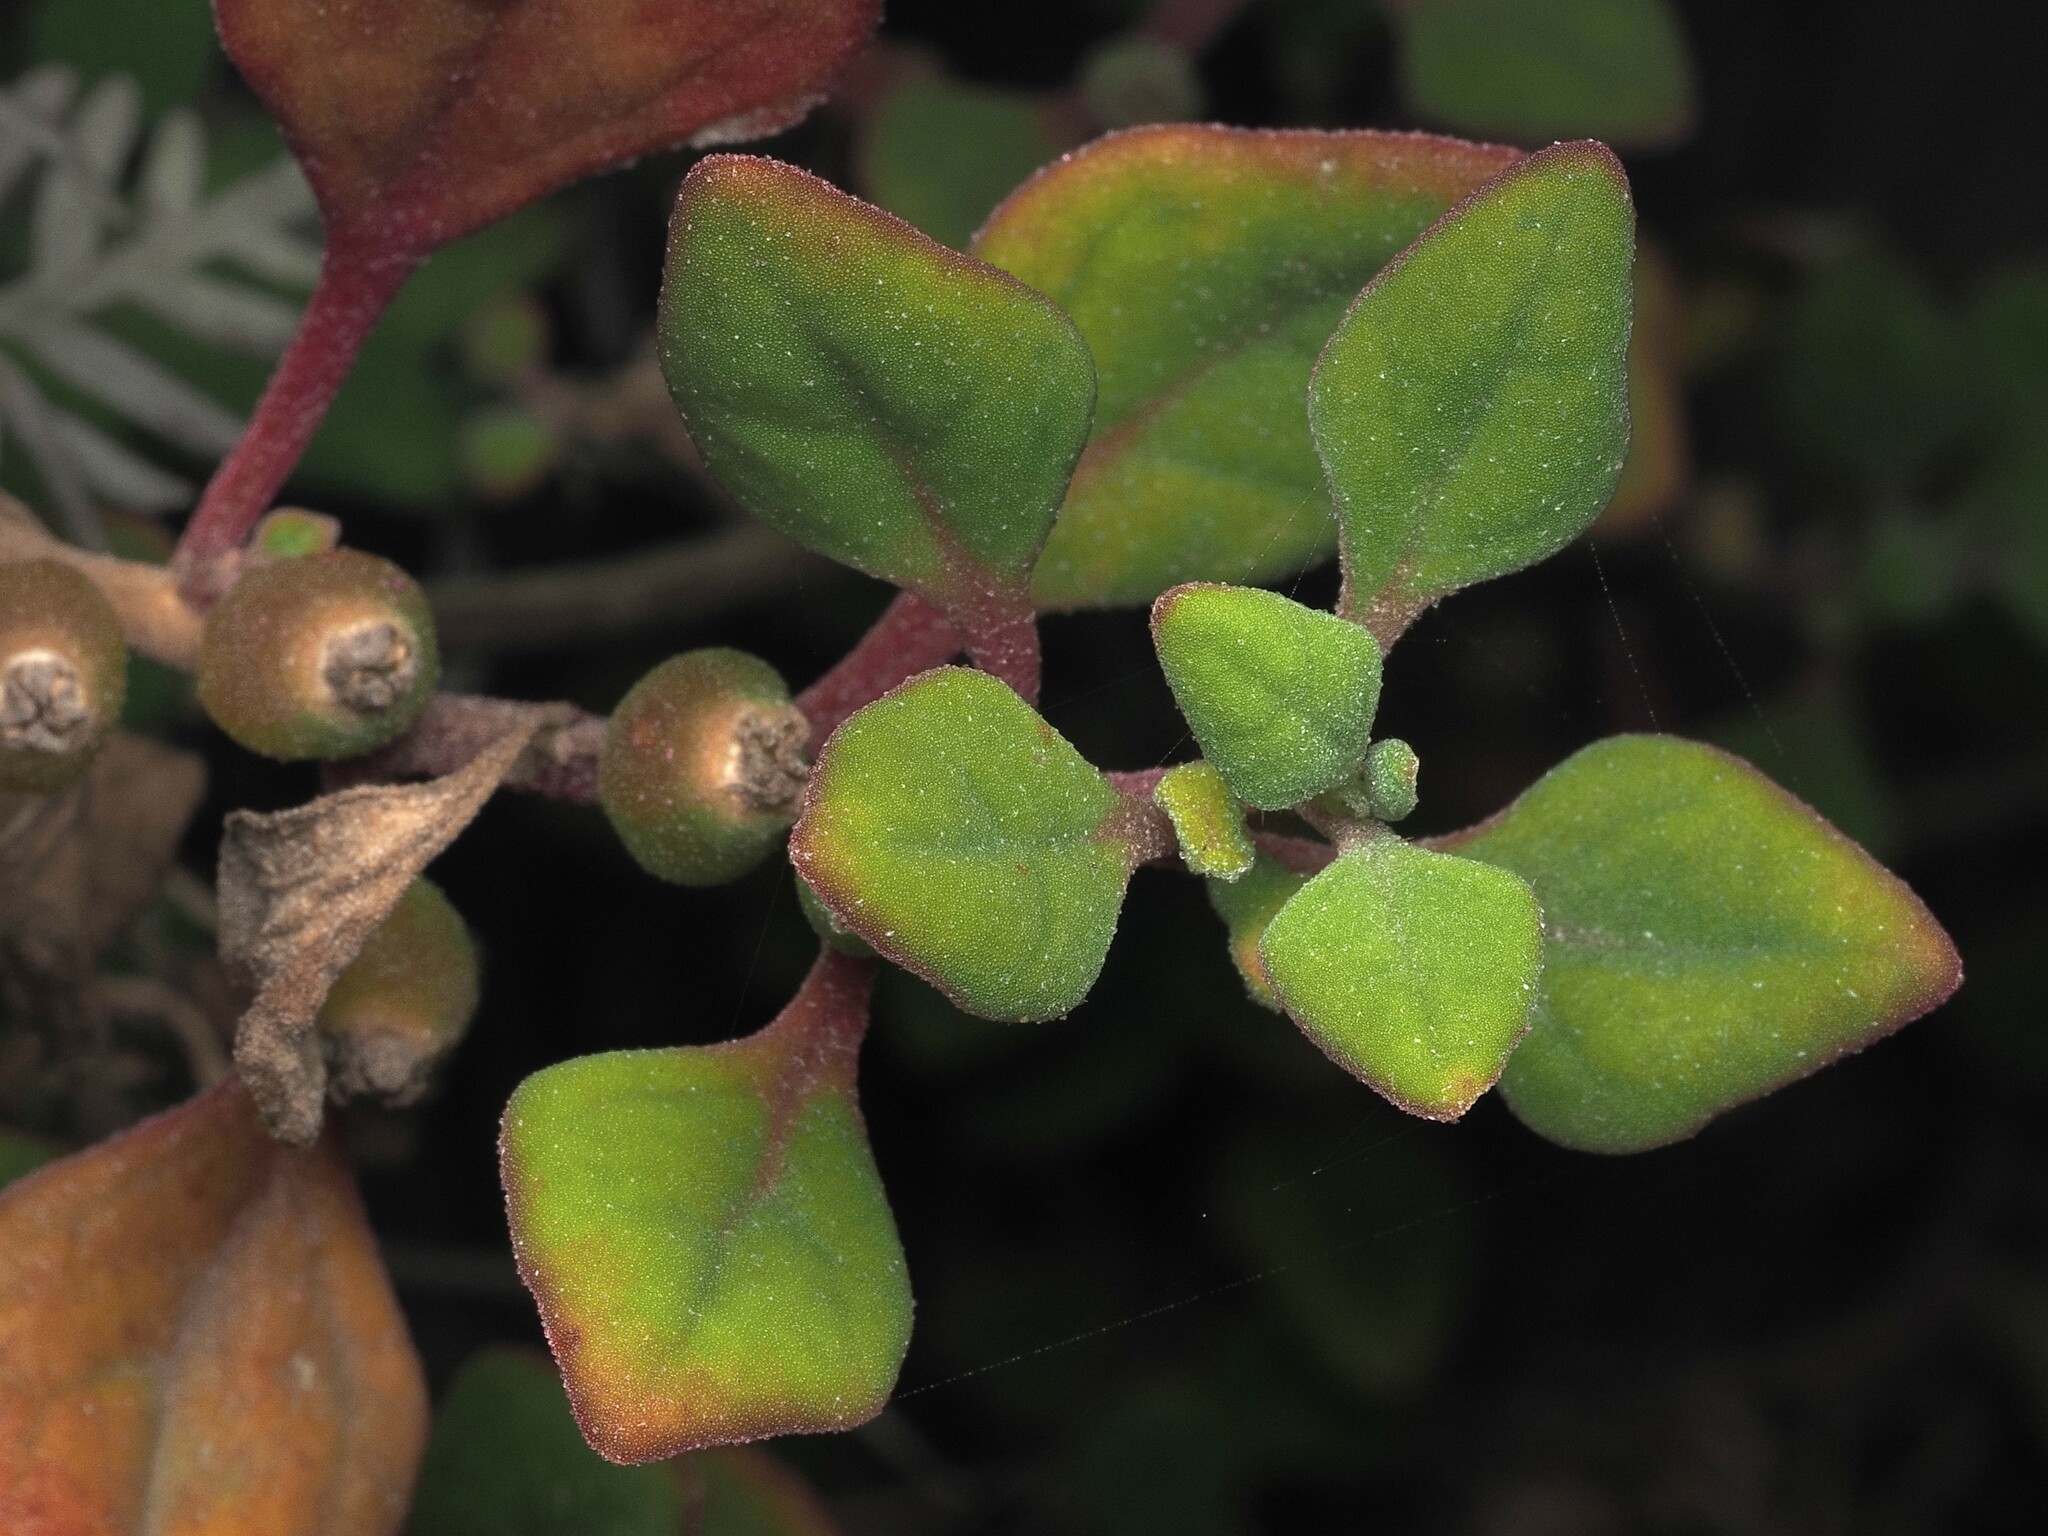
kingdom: Plantae
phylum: Tracheophyta
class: Magnoliopsida
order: Caryophyllales
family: Aizoaceae
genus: Tetragonia
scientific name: Tetragonia implexicoma
